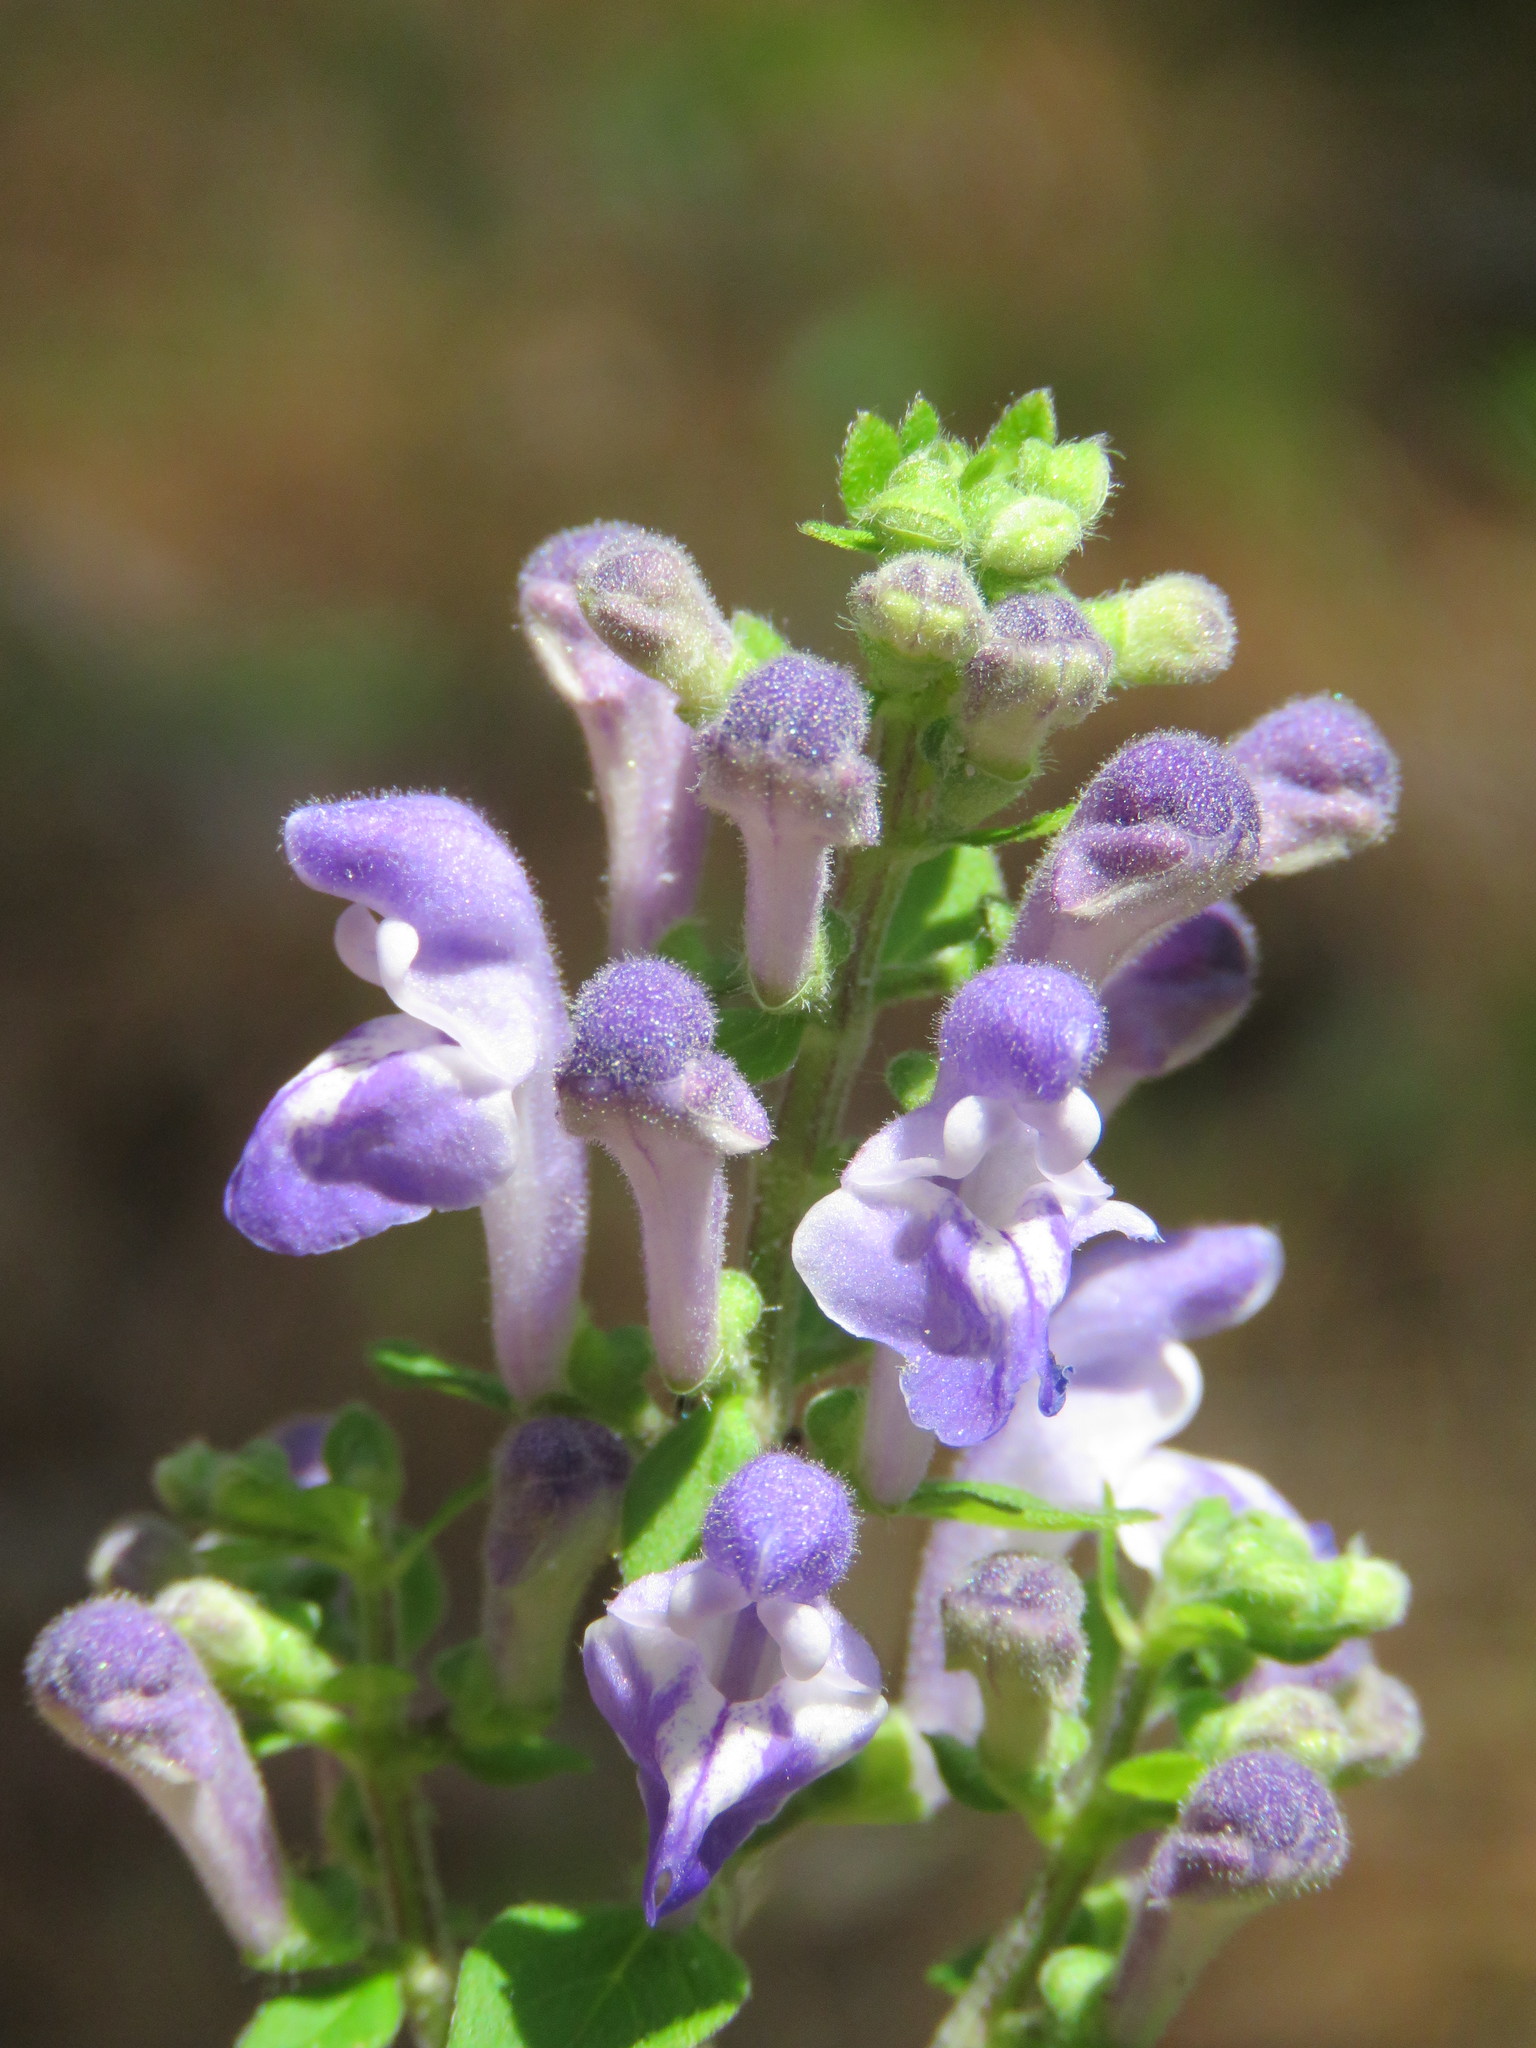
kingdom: Plantae
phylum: Tracheophyta
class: Magnoliopsida
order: Lamiales
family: Lamiaceae
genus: Scutellaria
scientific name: Scutellaria elliptica
